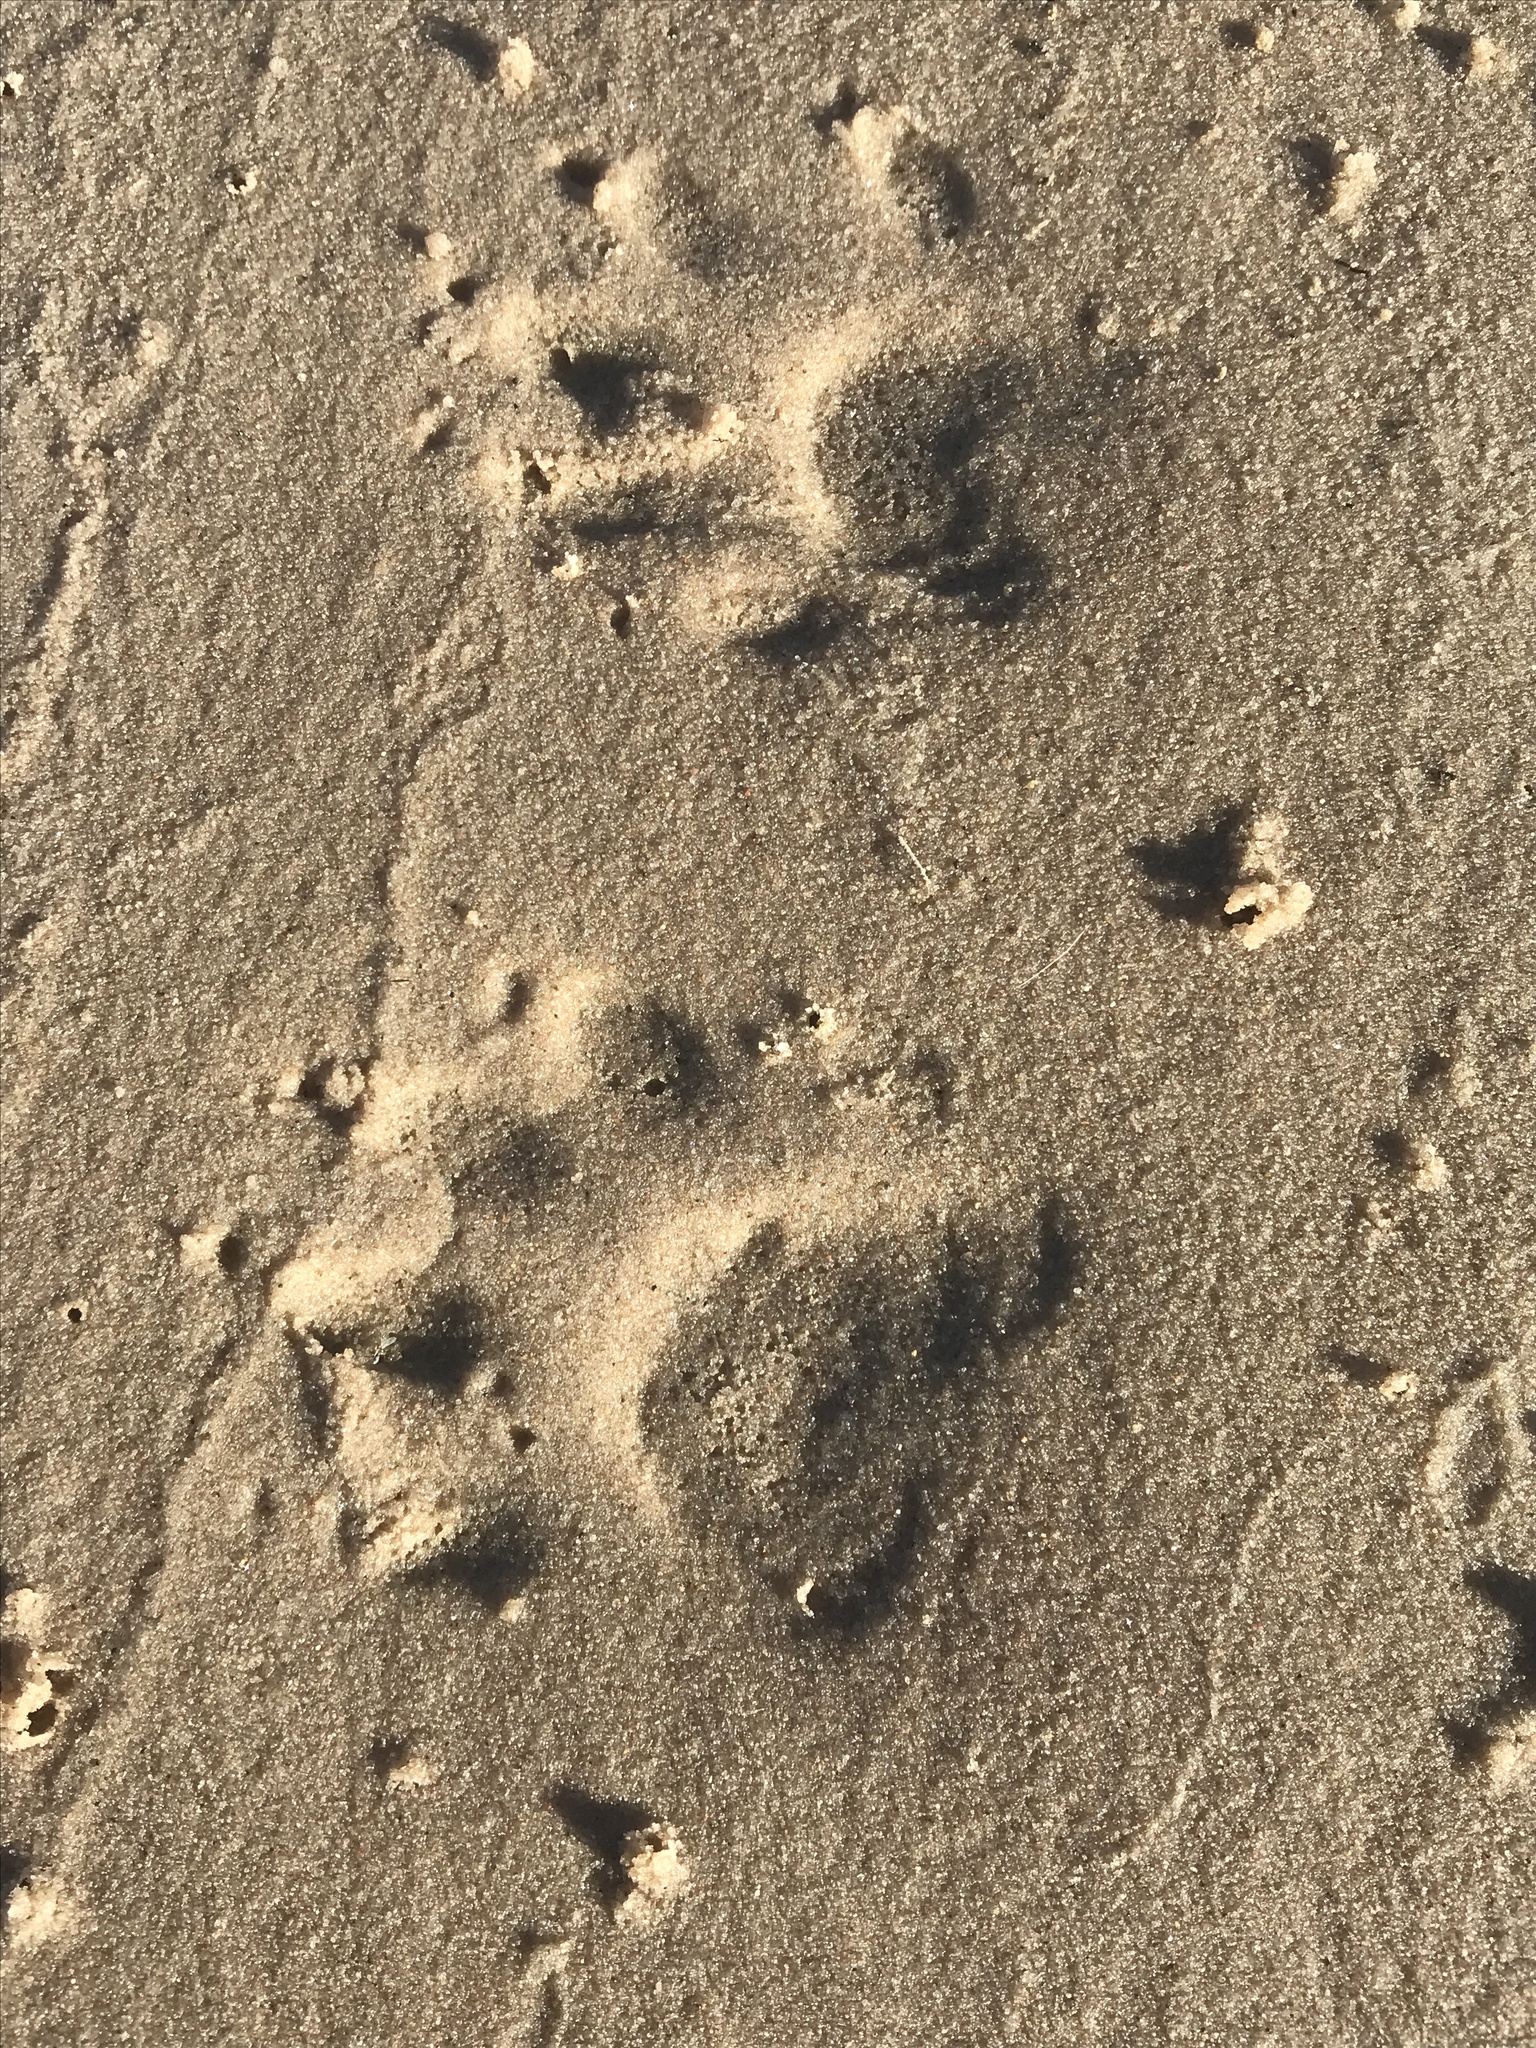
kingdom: Animalia
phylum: Chordata
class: Mammalia
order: Carnivora
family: Procyonidae
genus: Procyon
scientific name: Procyon lotor
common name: Raccoon
